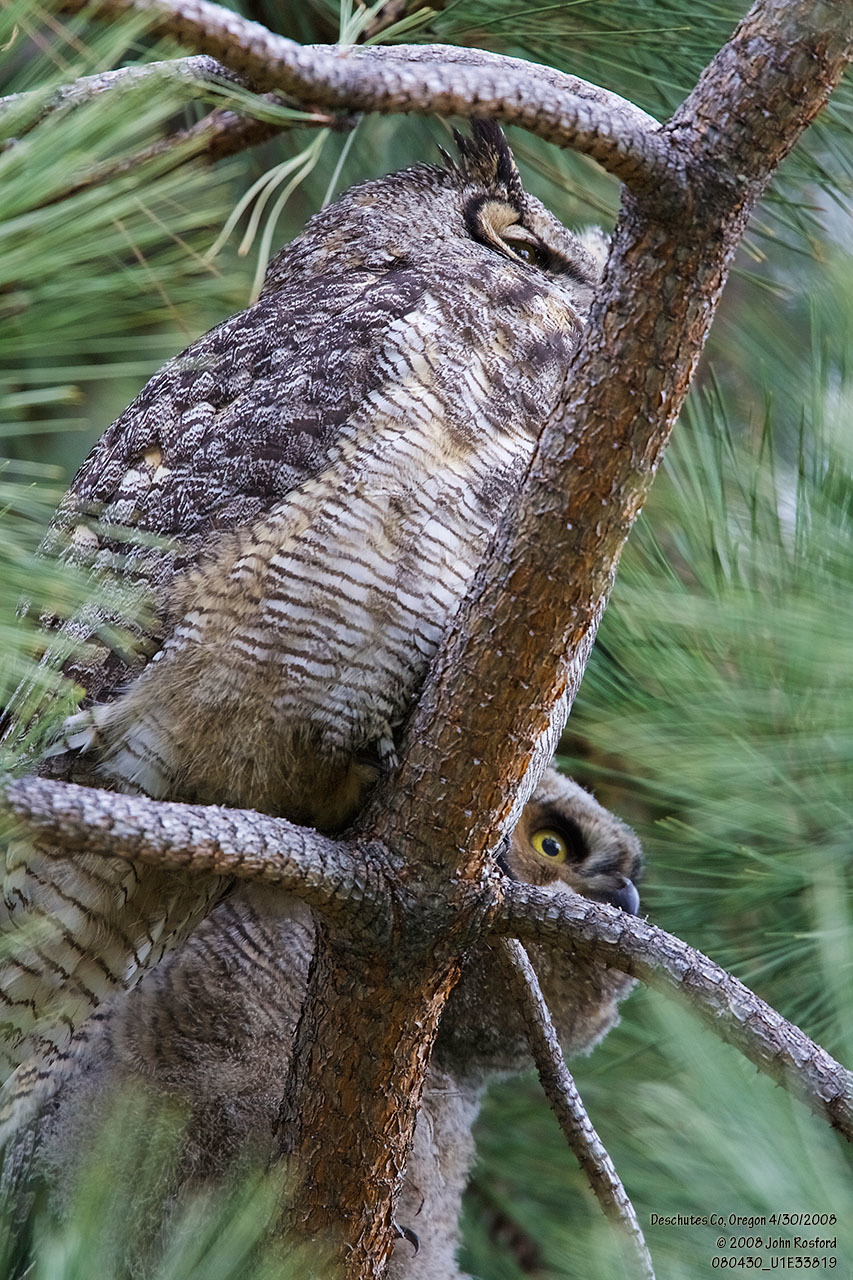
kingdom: Animalia
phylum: Chordata
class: Aves
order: Strigiformes
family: Strigidae
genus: Bubo
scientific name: Bubo virginianus
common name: Great horned owl
